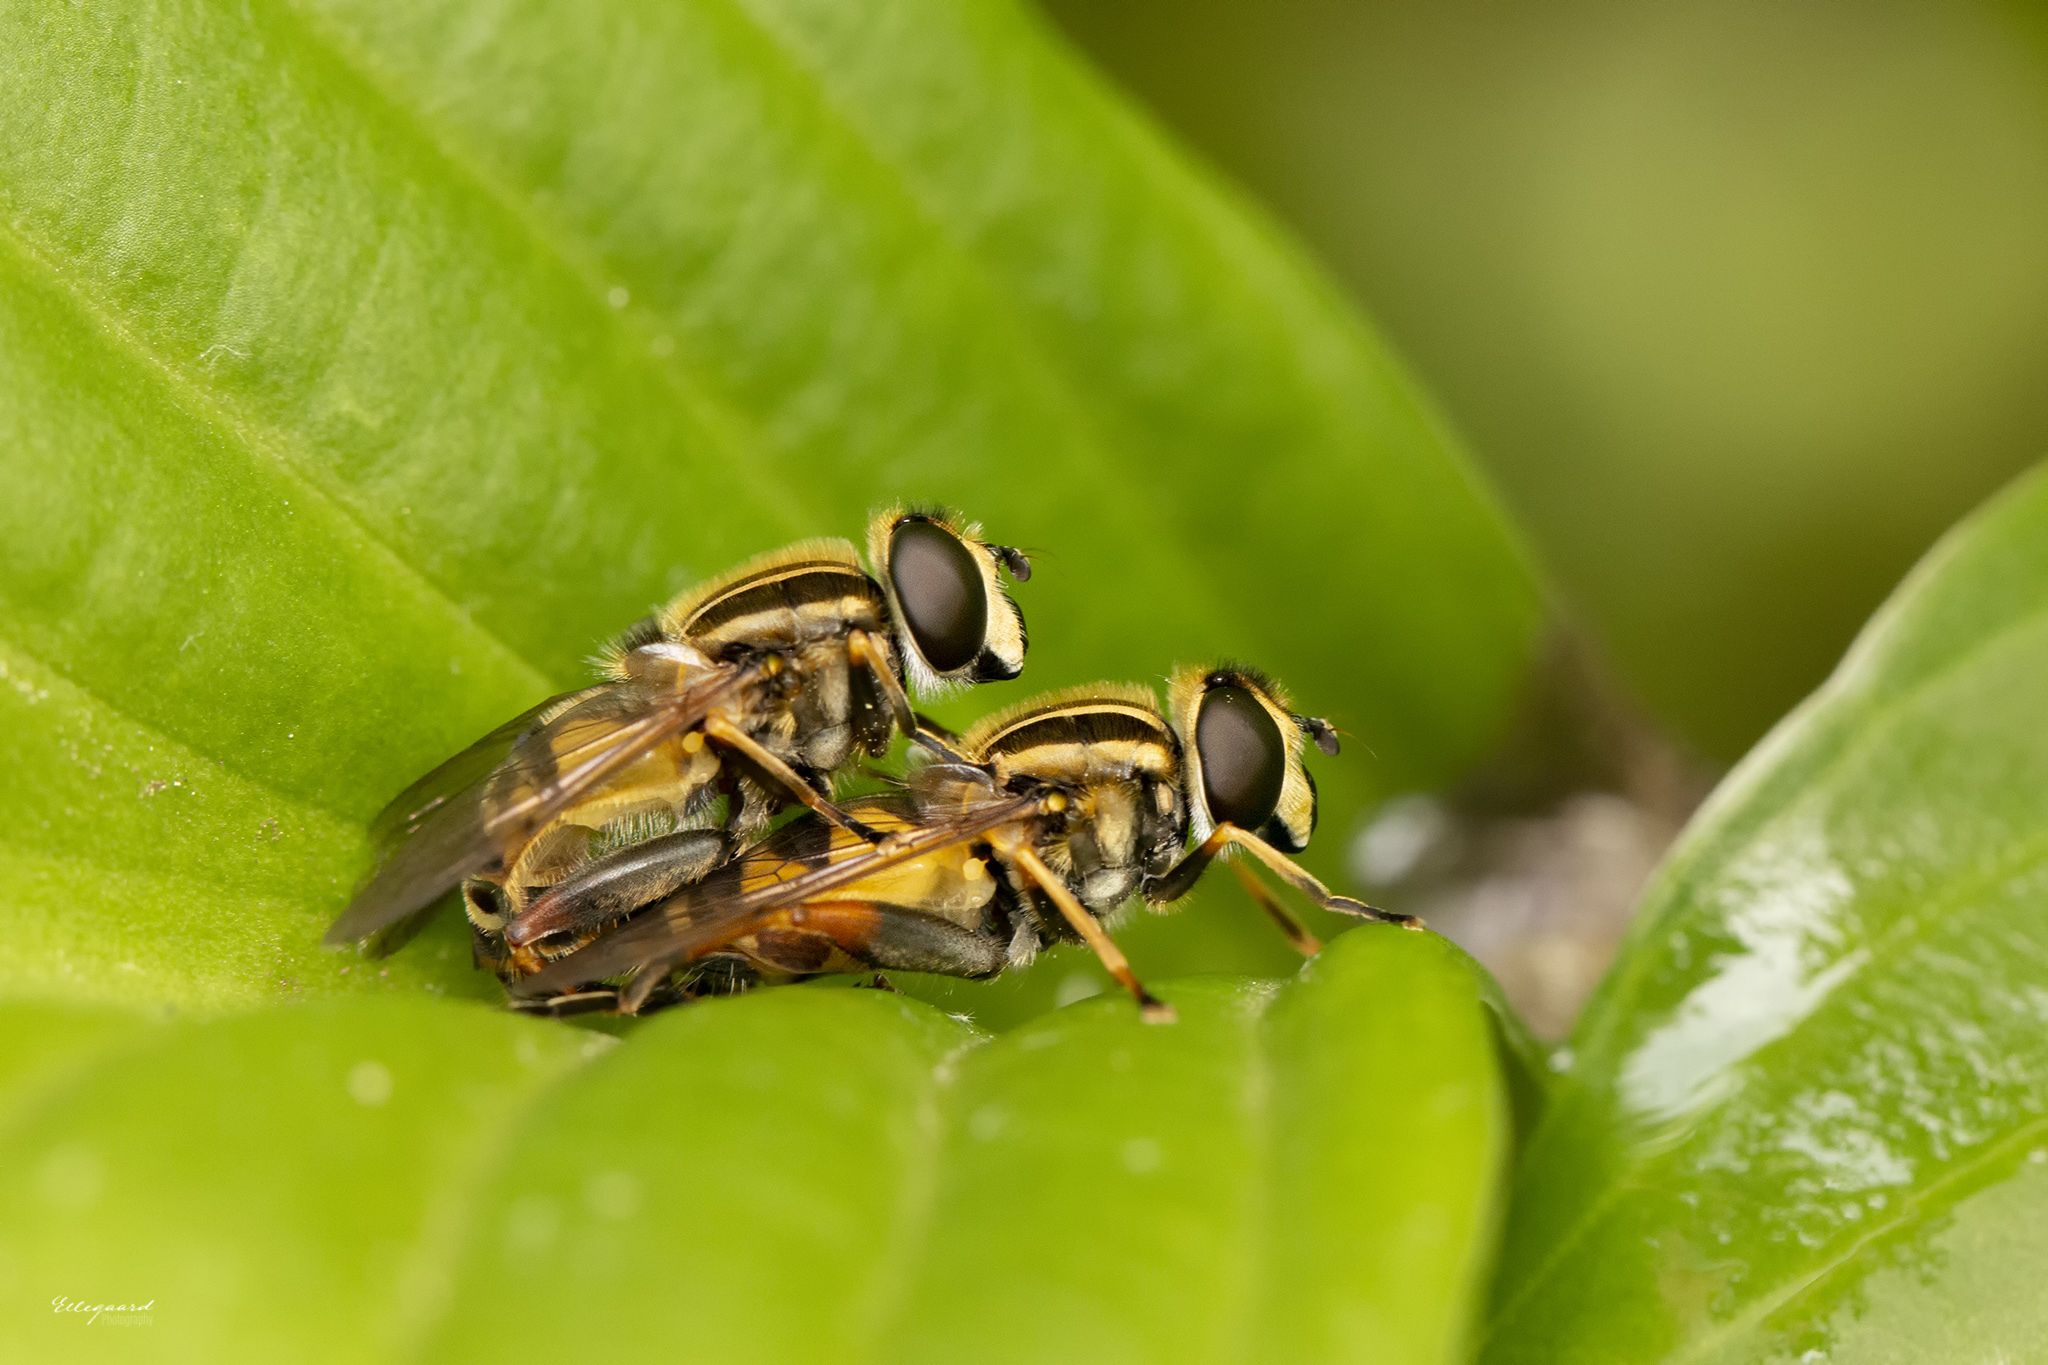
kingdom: Animalia
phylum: Arthropoda
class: Insecta
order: Diptera
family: Syrphidae
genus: Helophilus
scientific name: Helophilus pendulus
